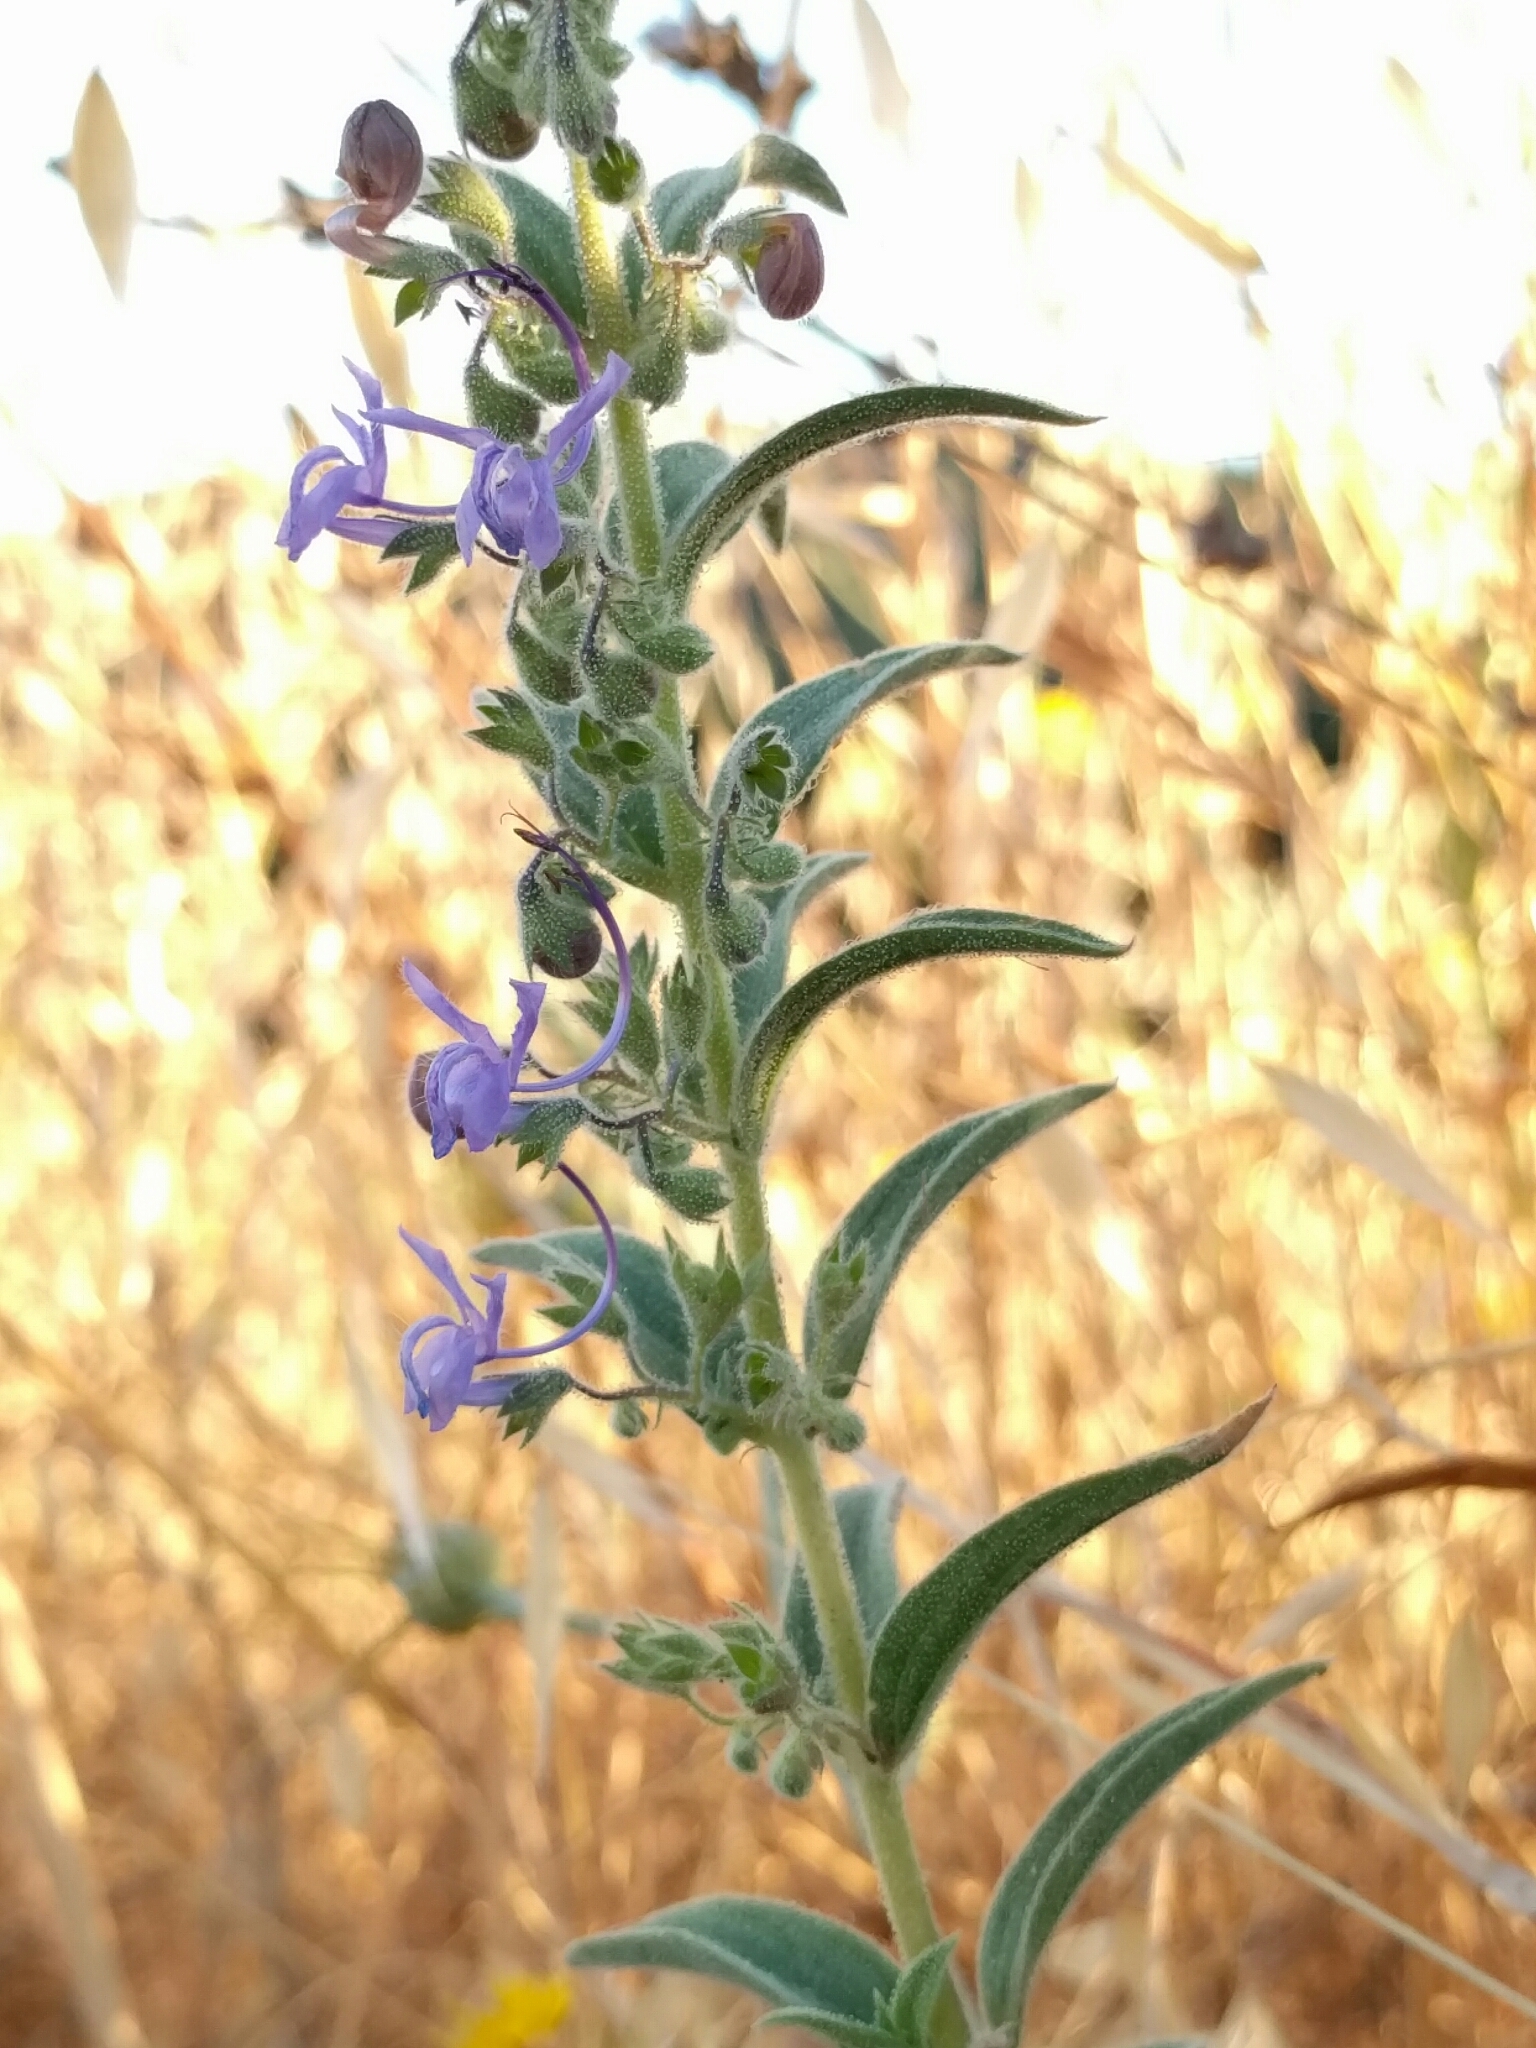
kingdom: Plantae
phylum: Tracheophyta
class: Magnoliopsida
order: Lamiales
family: Lamiaceae
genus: Trichostema
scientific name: Trichostema lanceolatum
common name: Vinegar-weed
